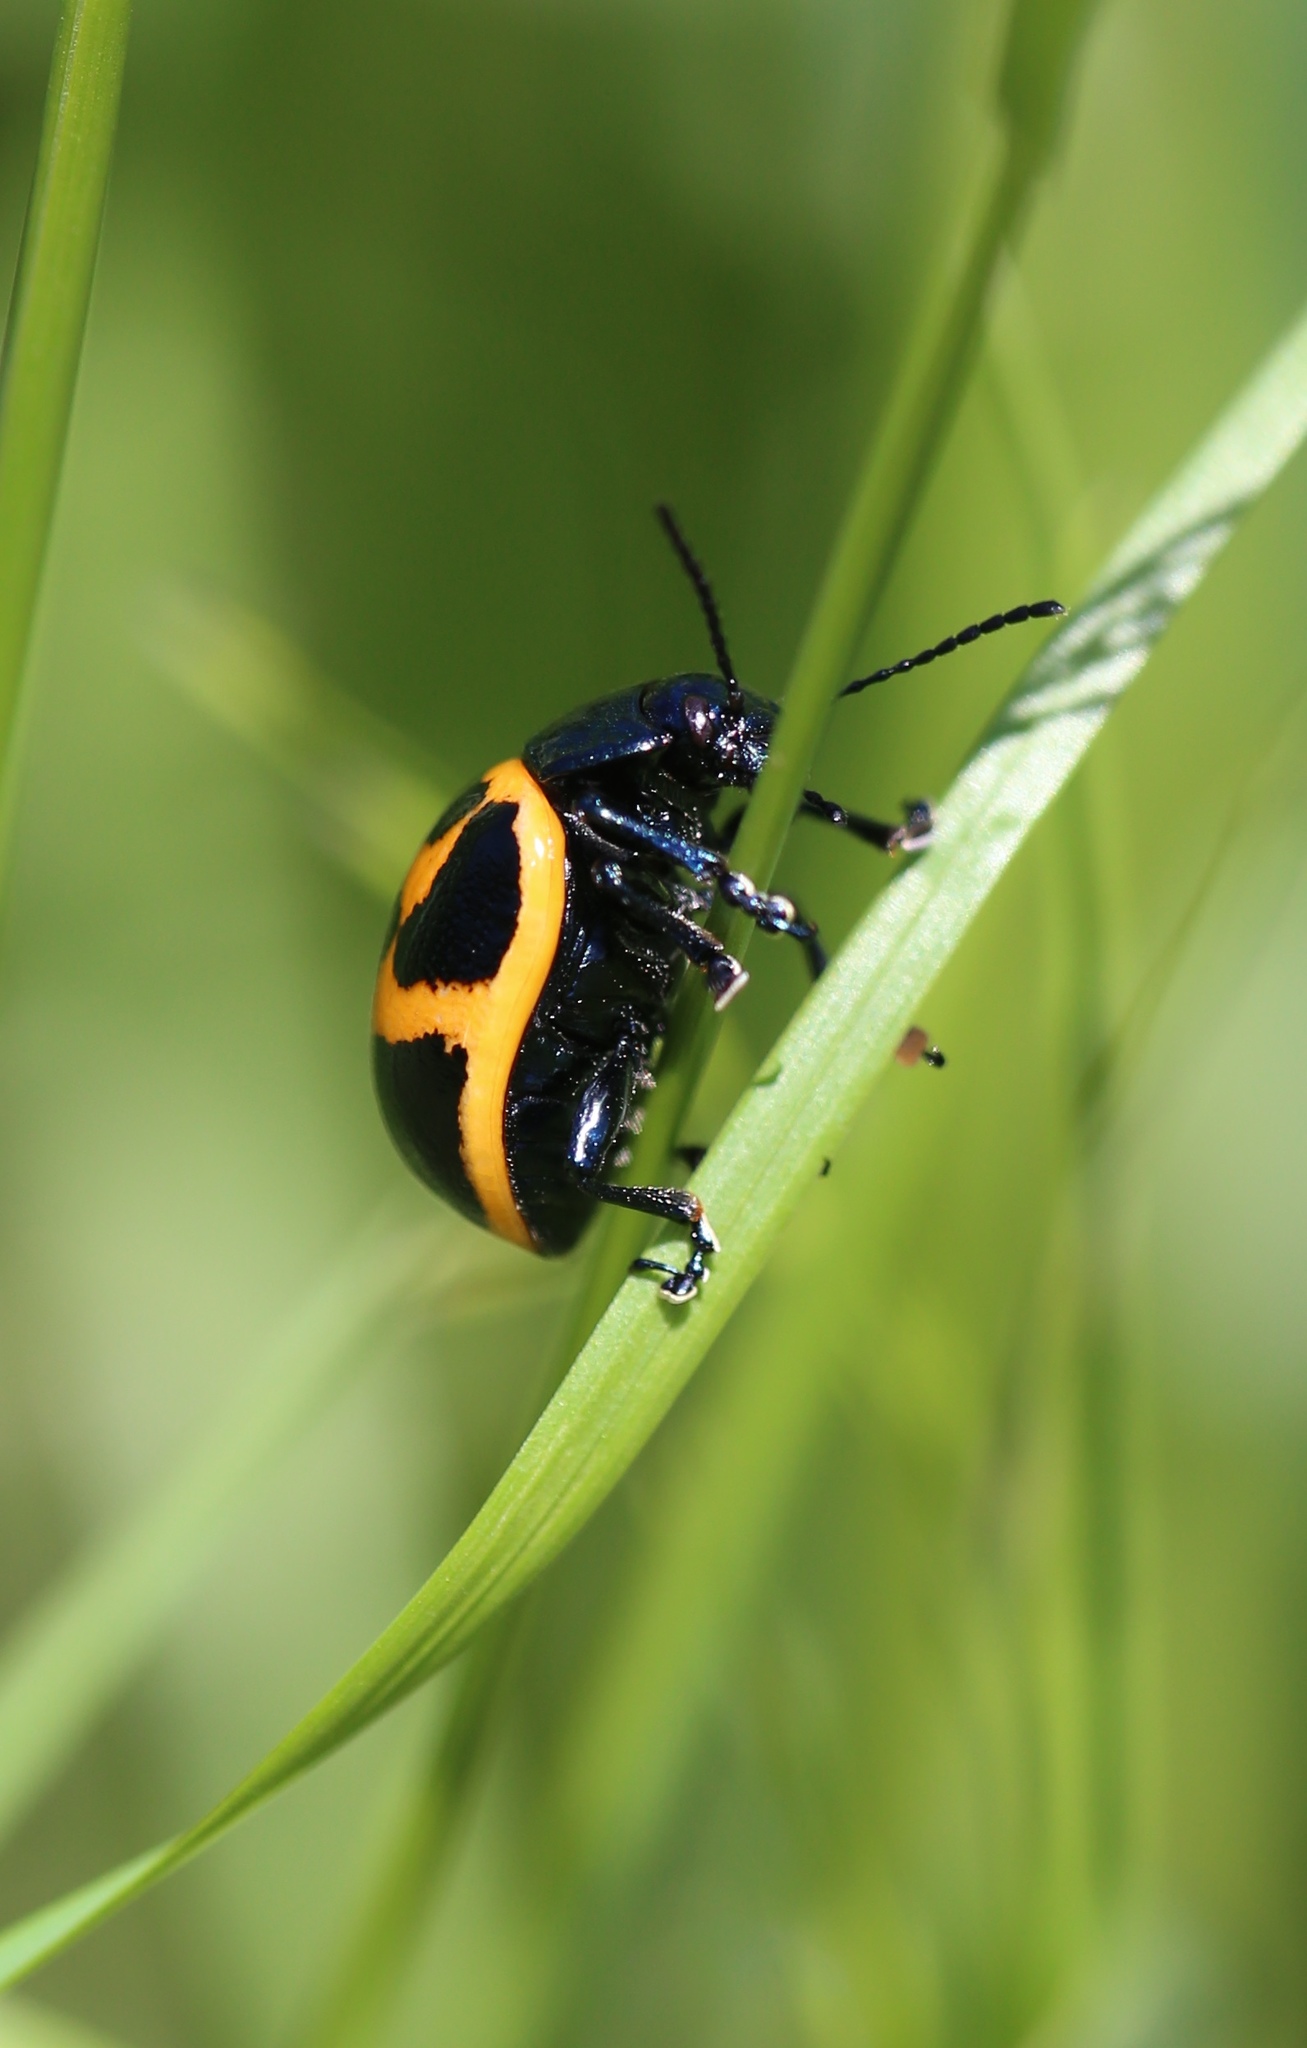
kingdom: Animalia
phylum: Arthropoda
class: Insecta
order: Coleoptera
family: Chrysomelidae
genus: Labidomera
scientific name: Labidomera clivicollis
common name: Swamp milkweed leaf beetle
